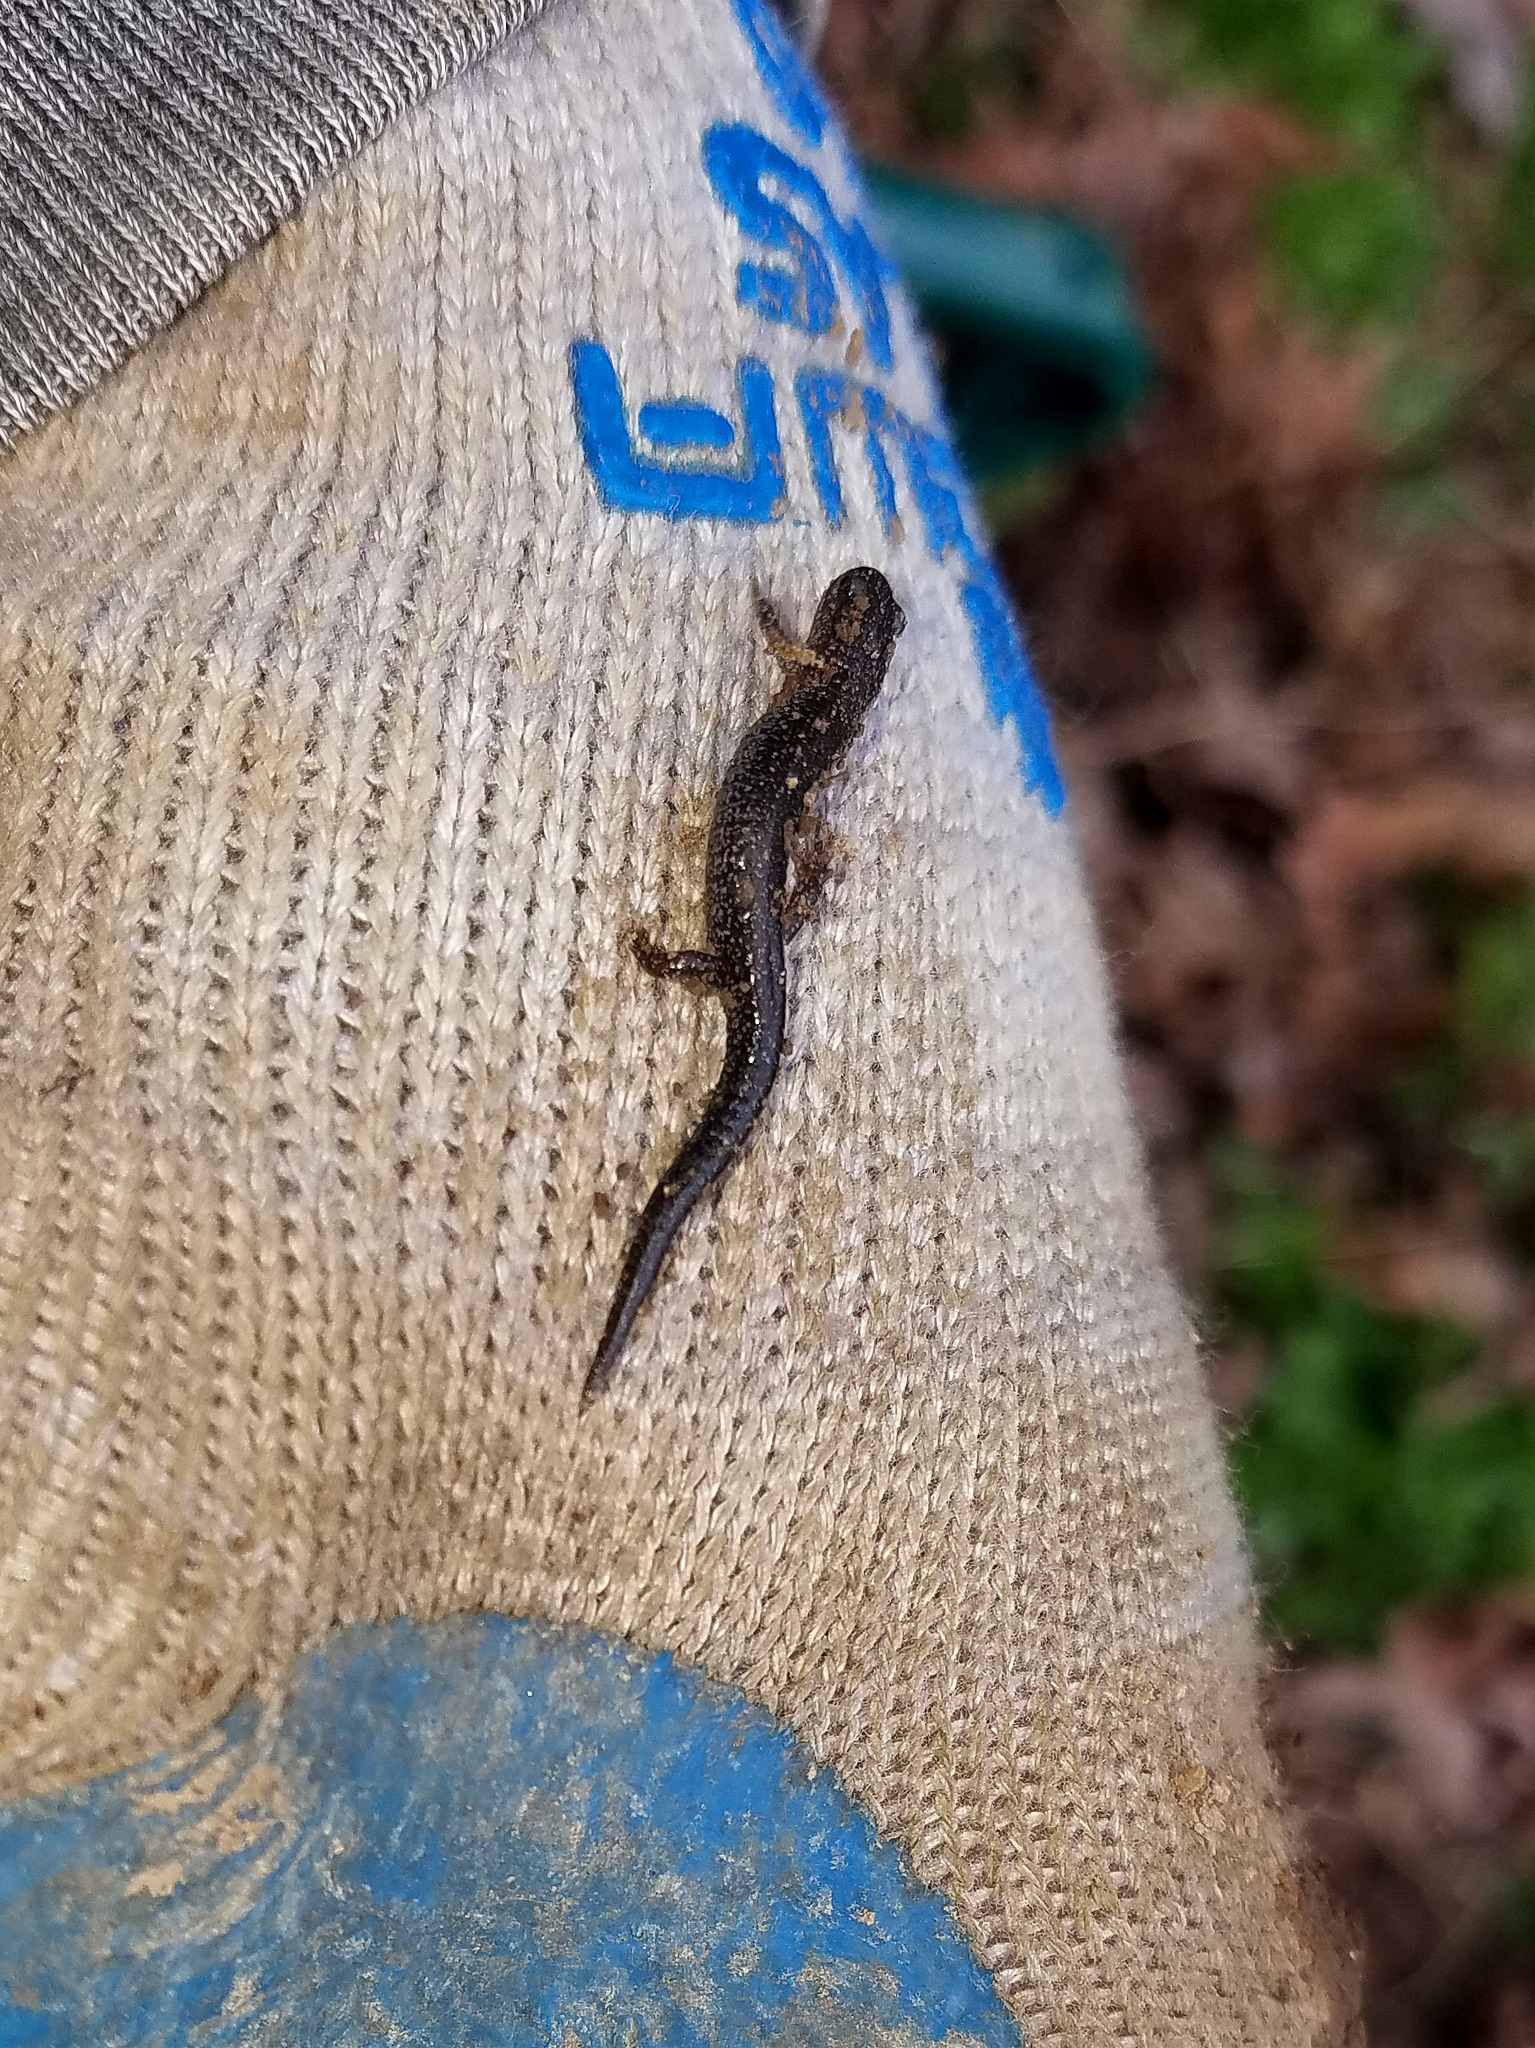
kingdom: Animalia
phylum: Chordata
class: Amphibia
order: Caudata
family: Plethodontidae
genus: Plethodon
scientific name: Plethodon cinereus
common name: Redback salamander
